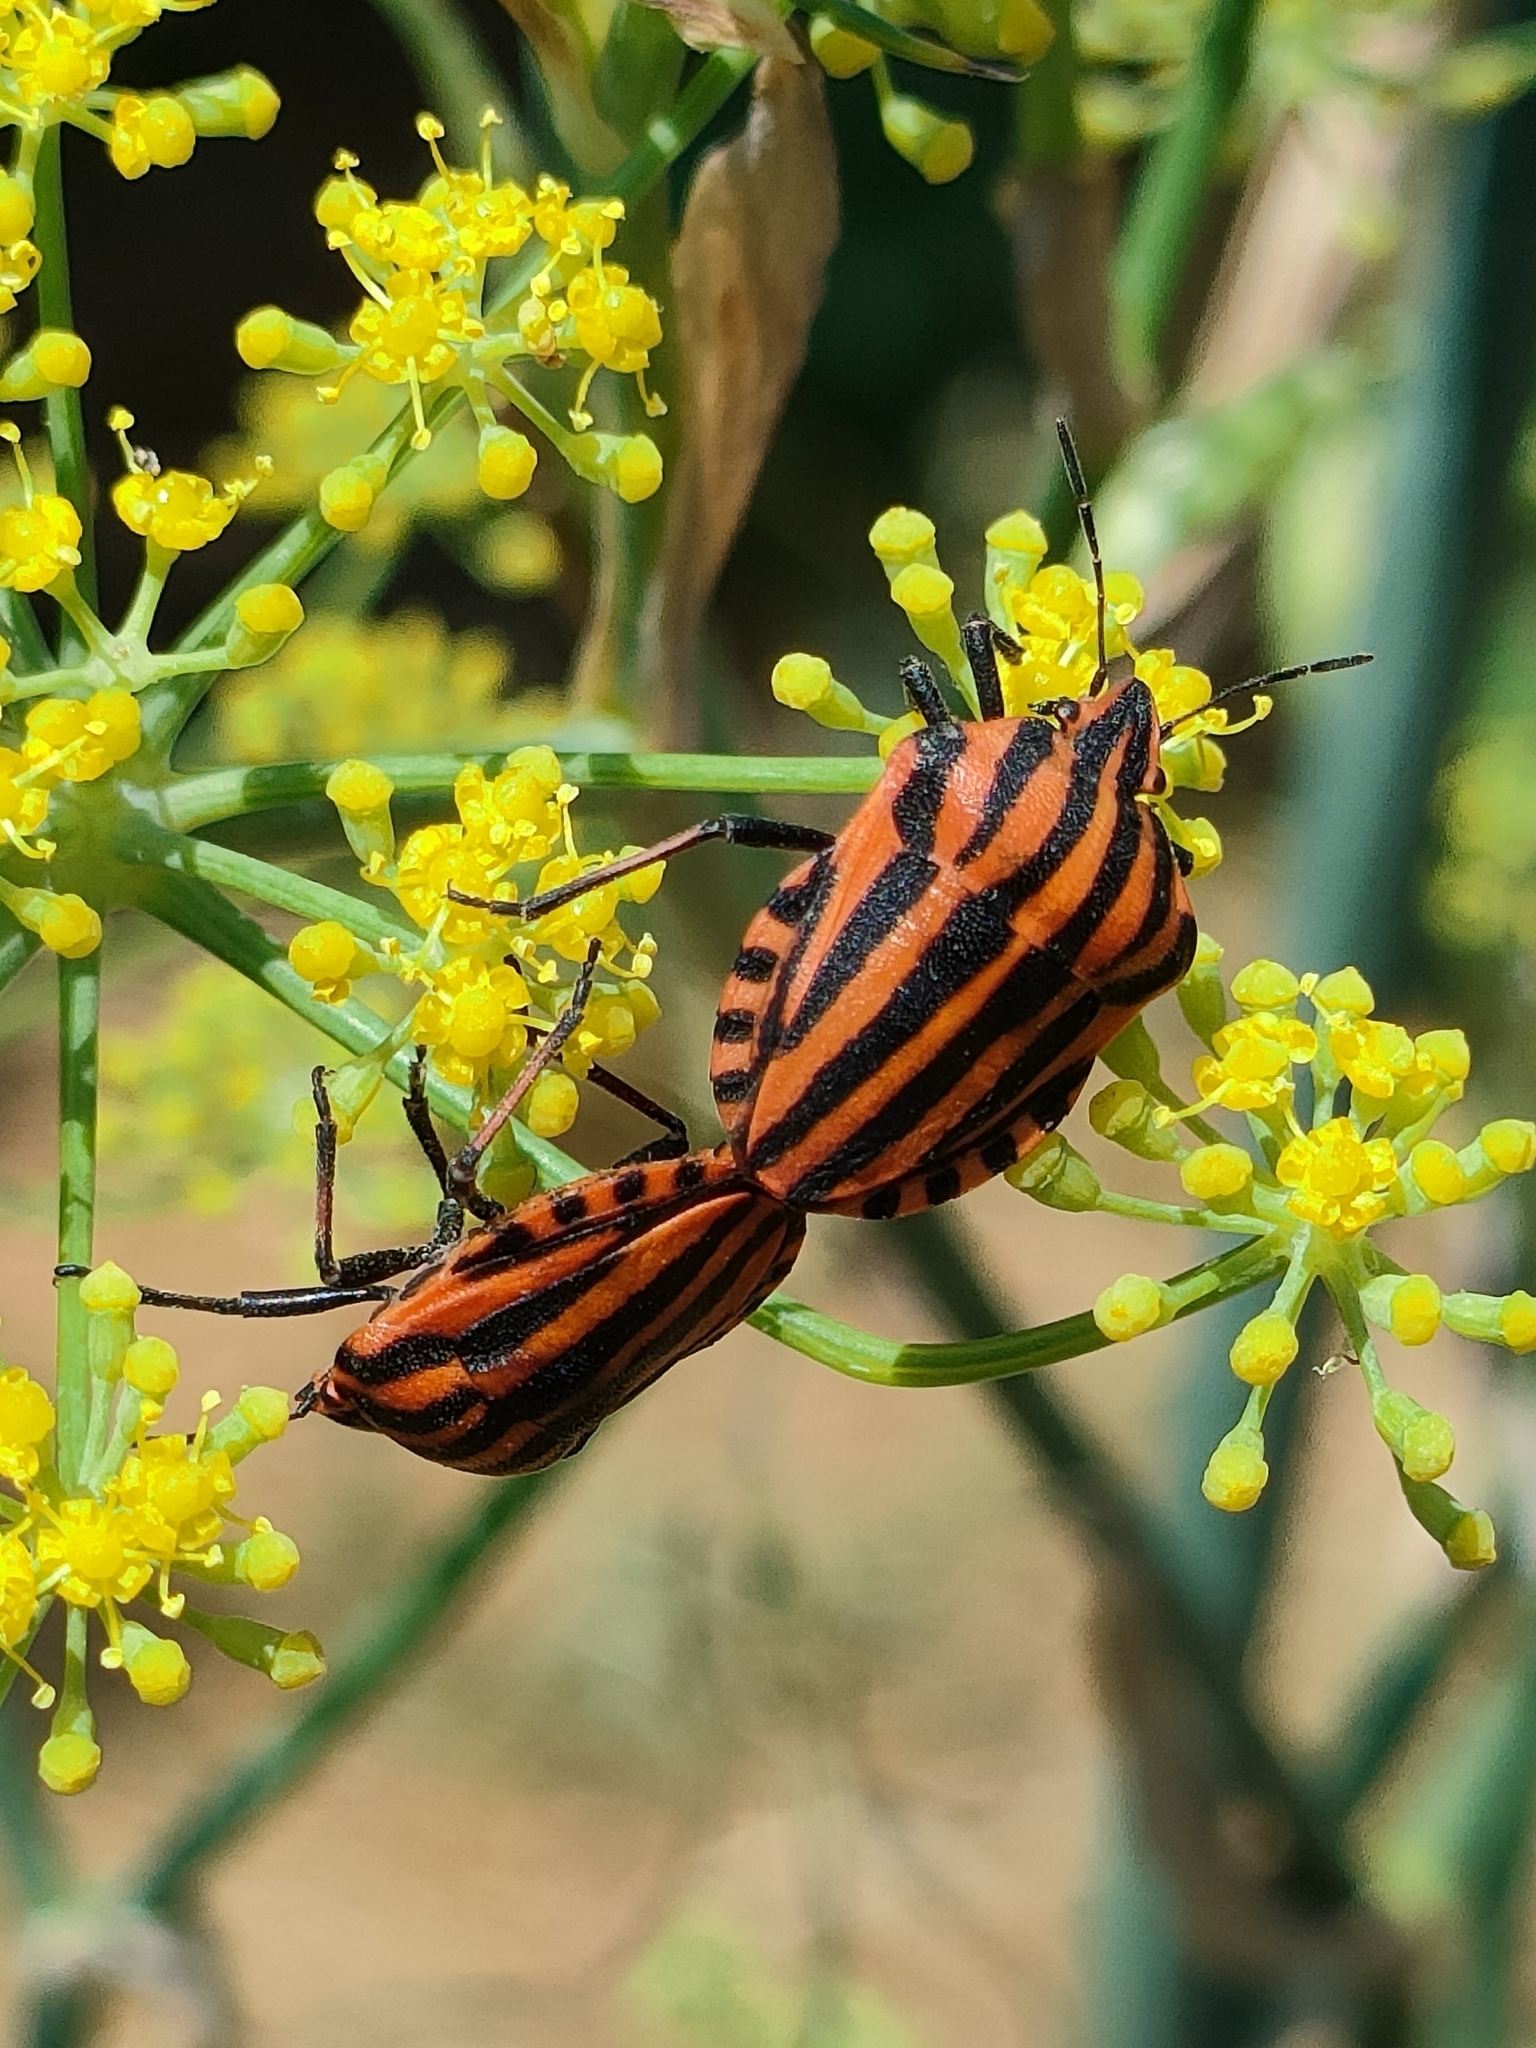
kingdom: Animalia
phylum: Arthropoda
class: Insecta
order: Hemiptera
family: Pentatomidae
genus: Graphosoma
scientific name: Graphosoma italicum
